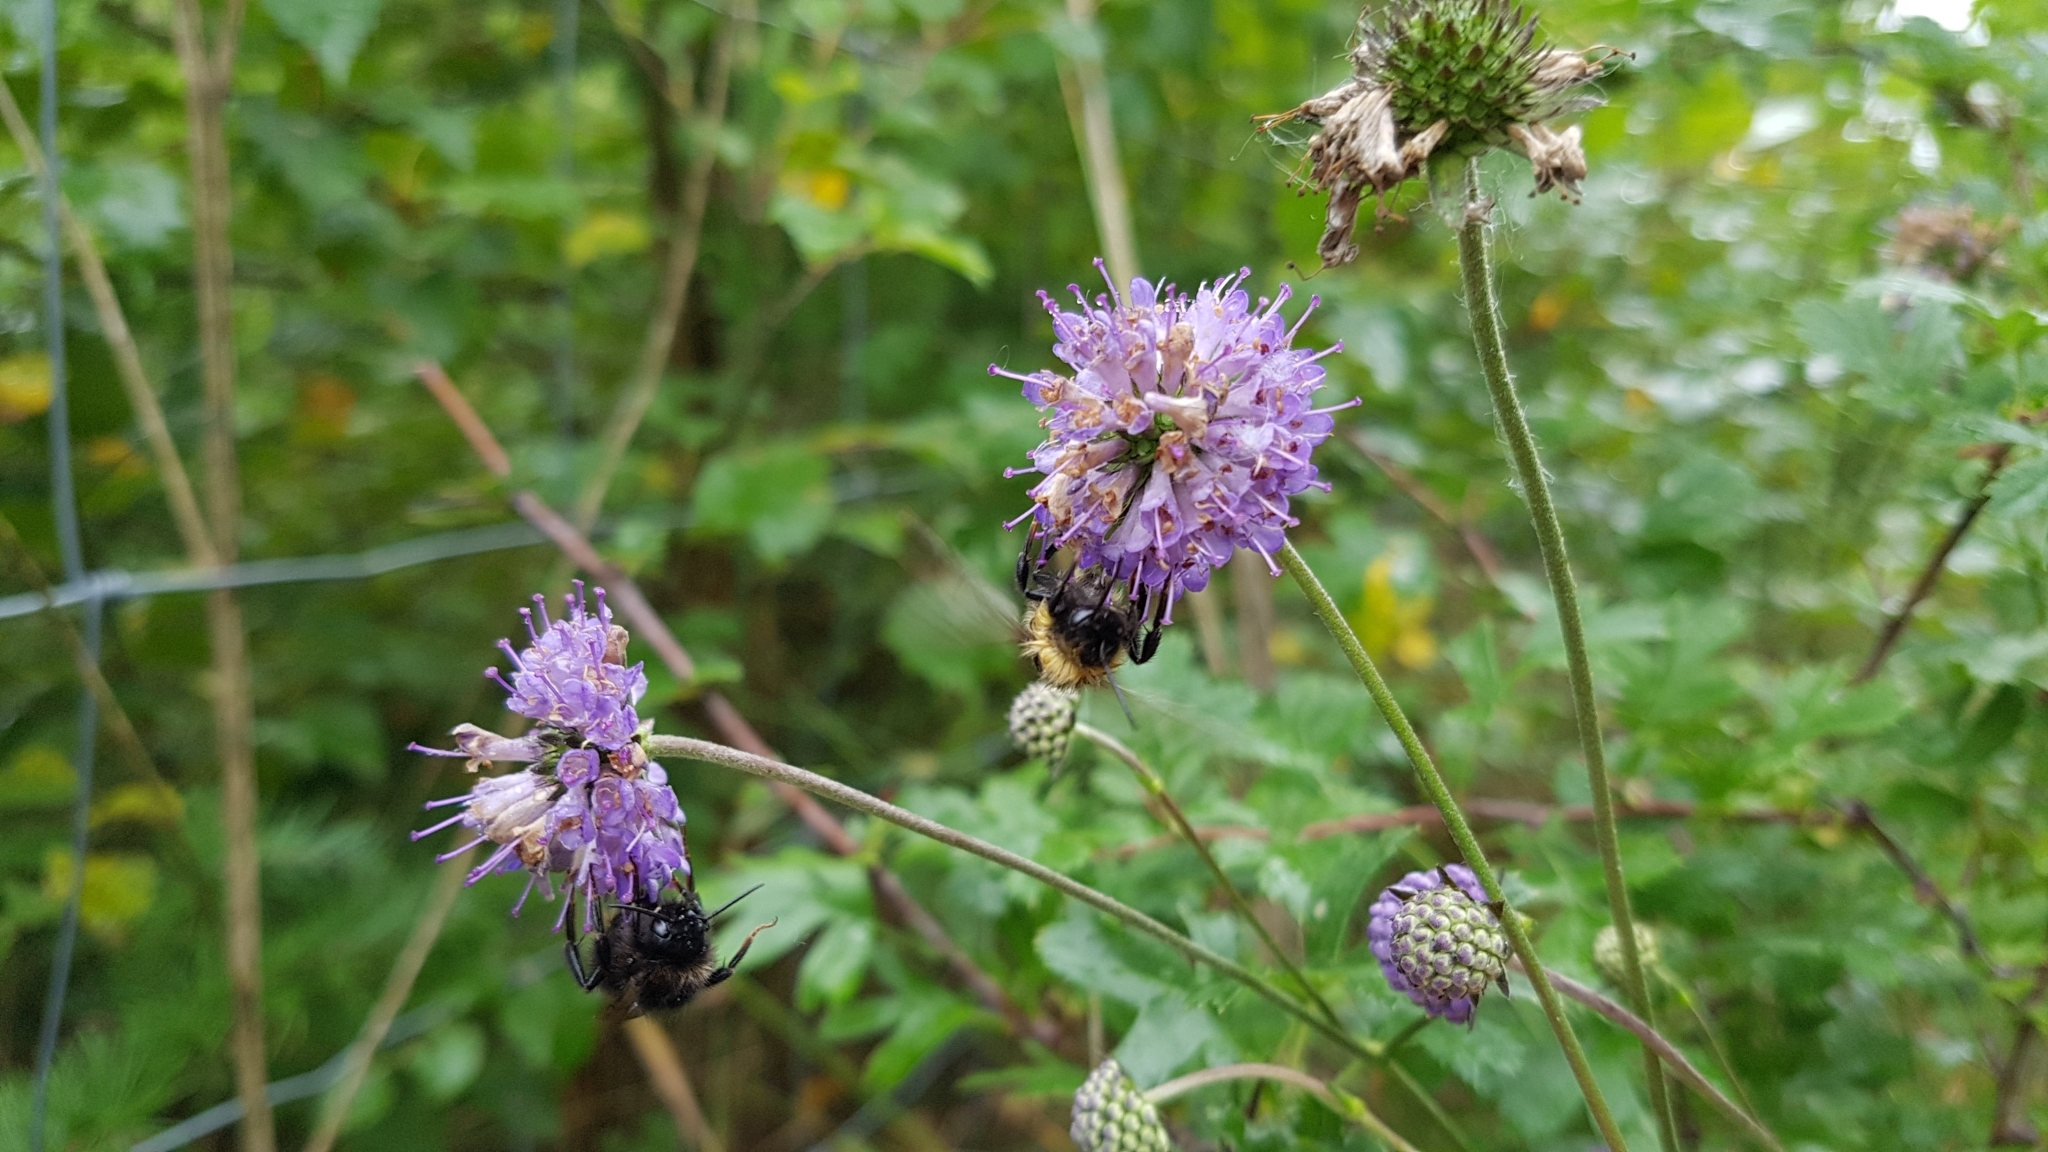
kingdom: Plantae
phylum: Tracheophyta
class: Magnoliopsida
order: Dipsacales
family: Caprifoliaceae
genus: Succisa
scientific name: Succisa pratensis
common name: Devil's-bit
